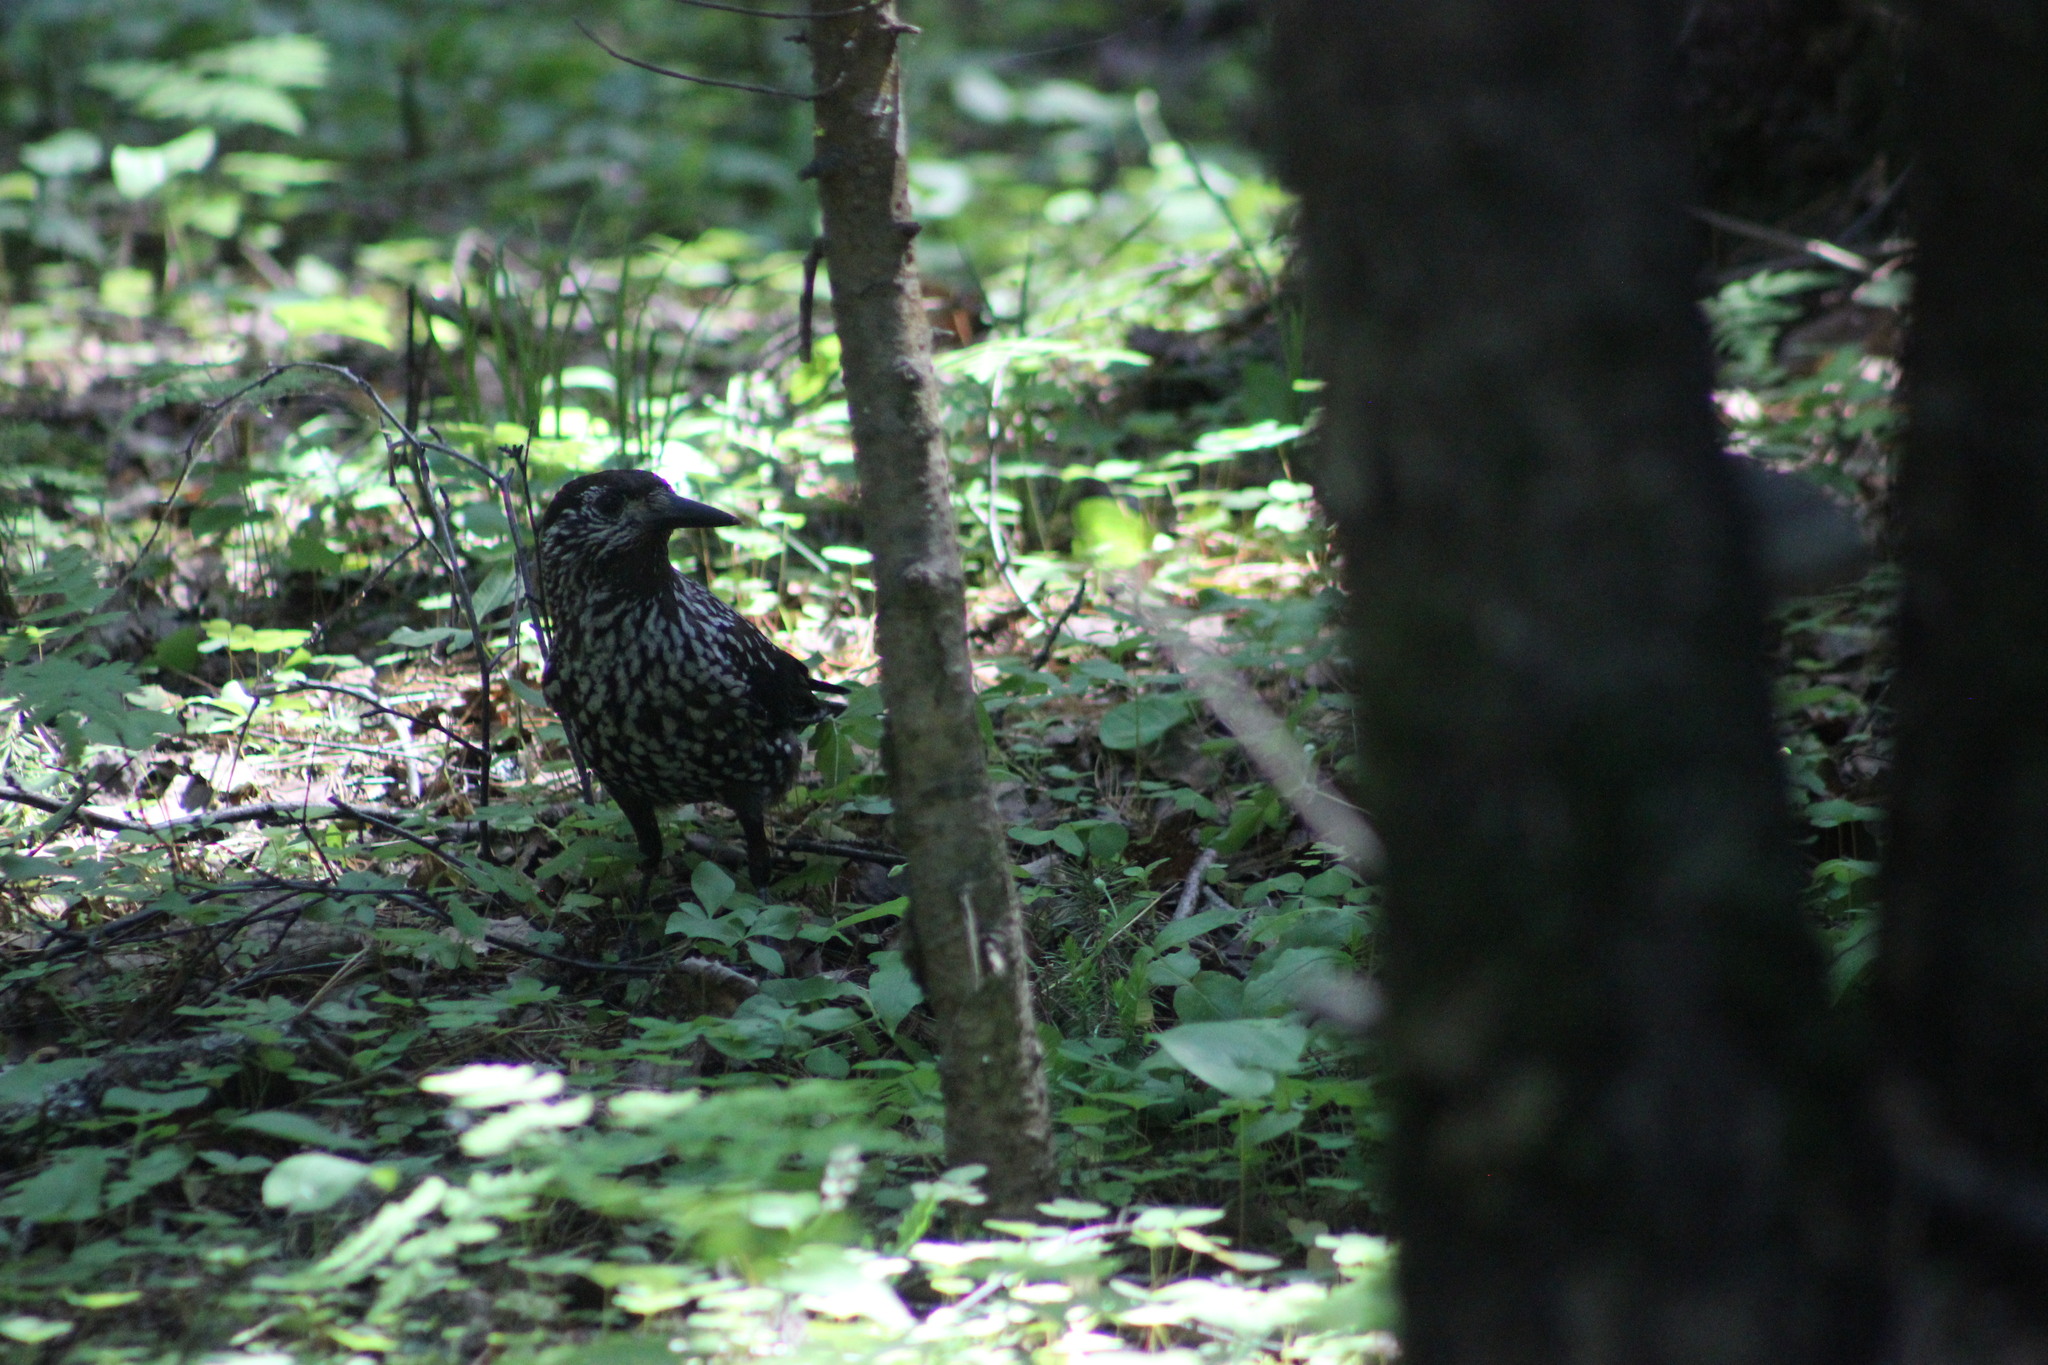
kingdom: Animalia
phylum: Chordata
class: Aves
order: Passeriformes
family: Corvidae
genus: Nucifraga
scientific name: Nucifraga caryocatactes
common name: Spotted nutcracker
